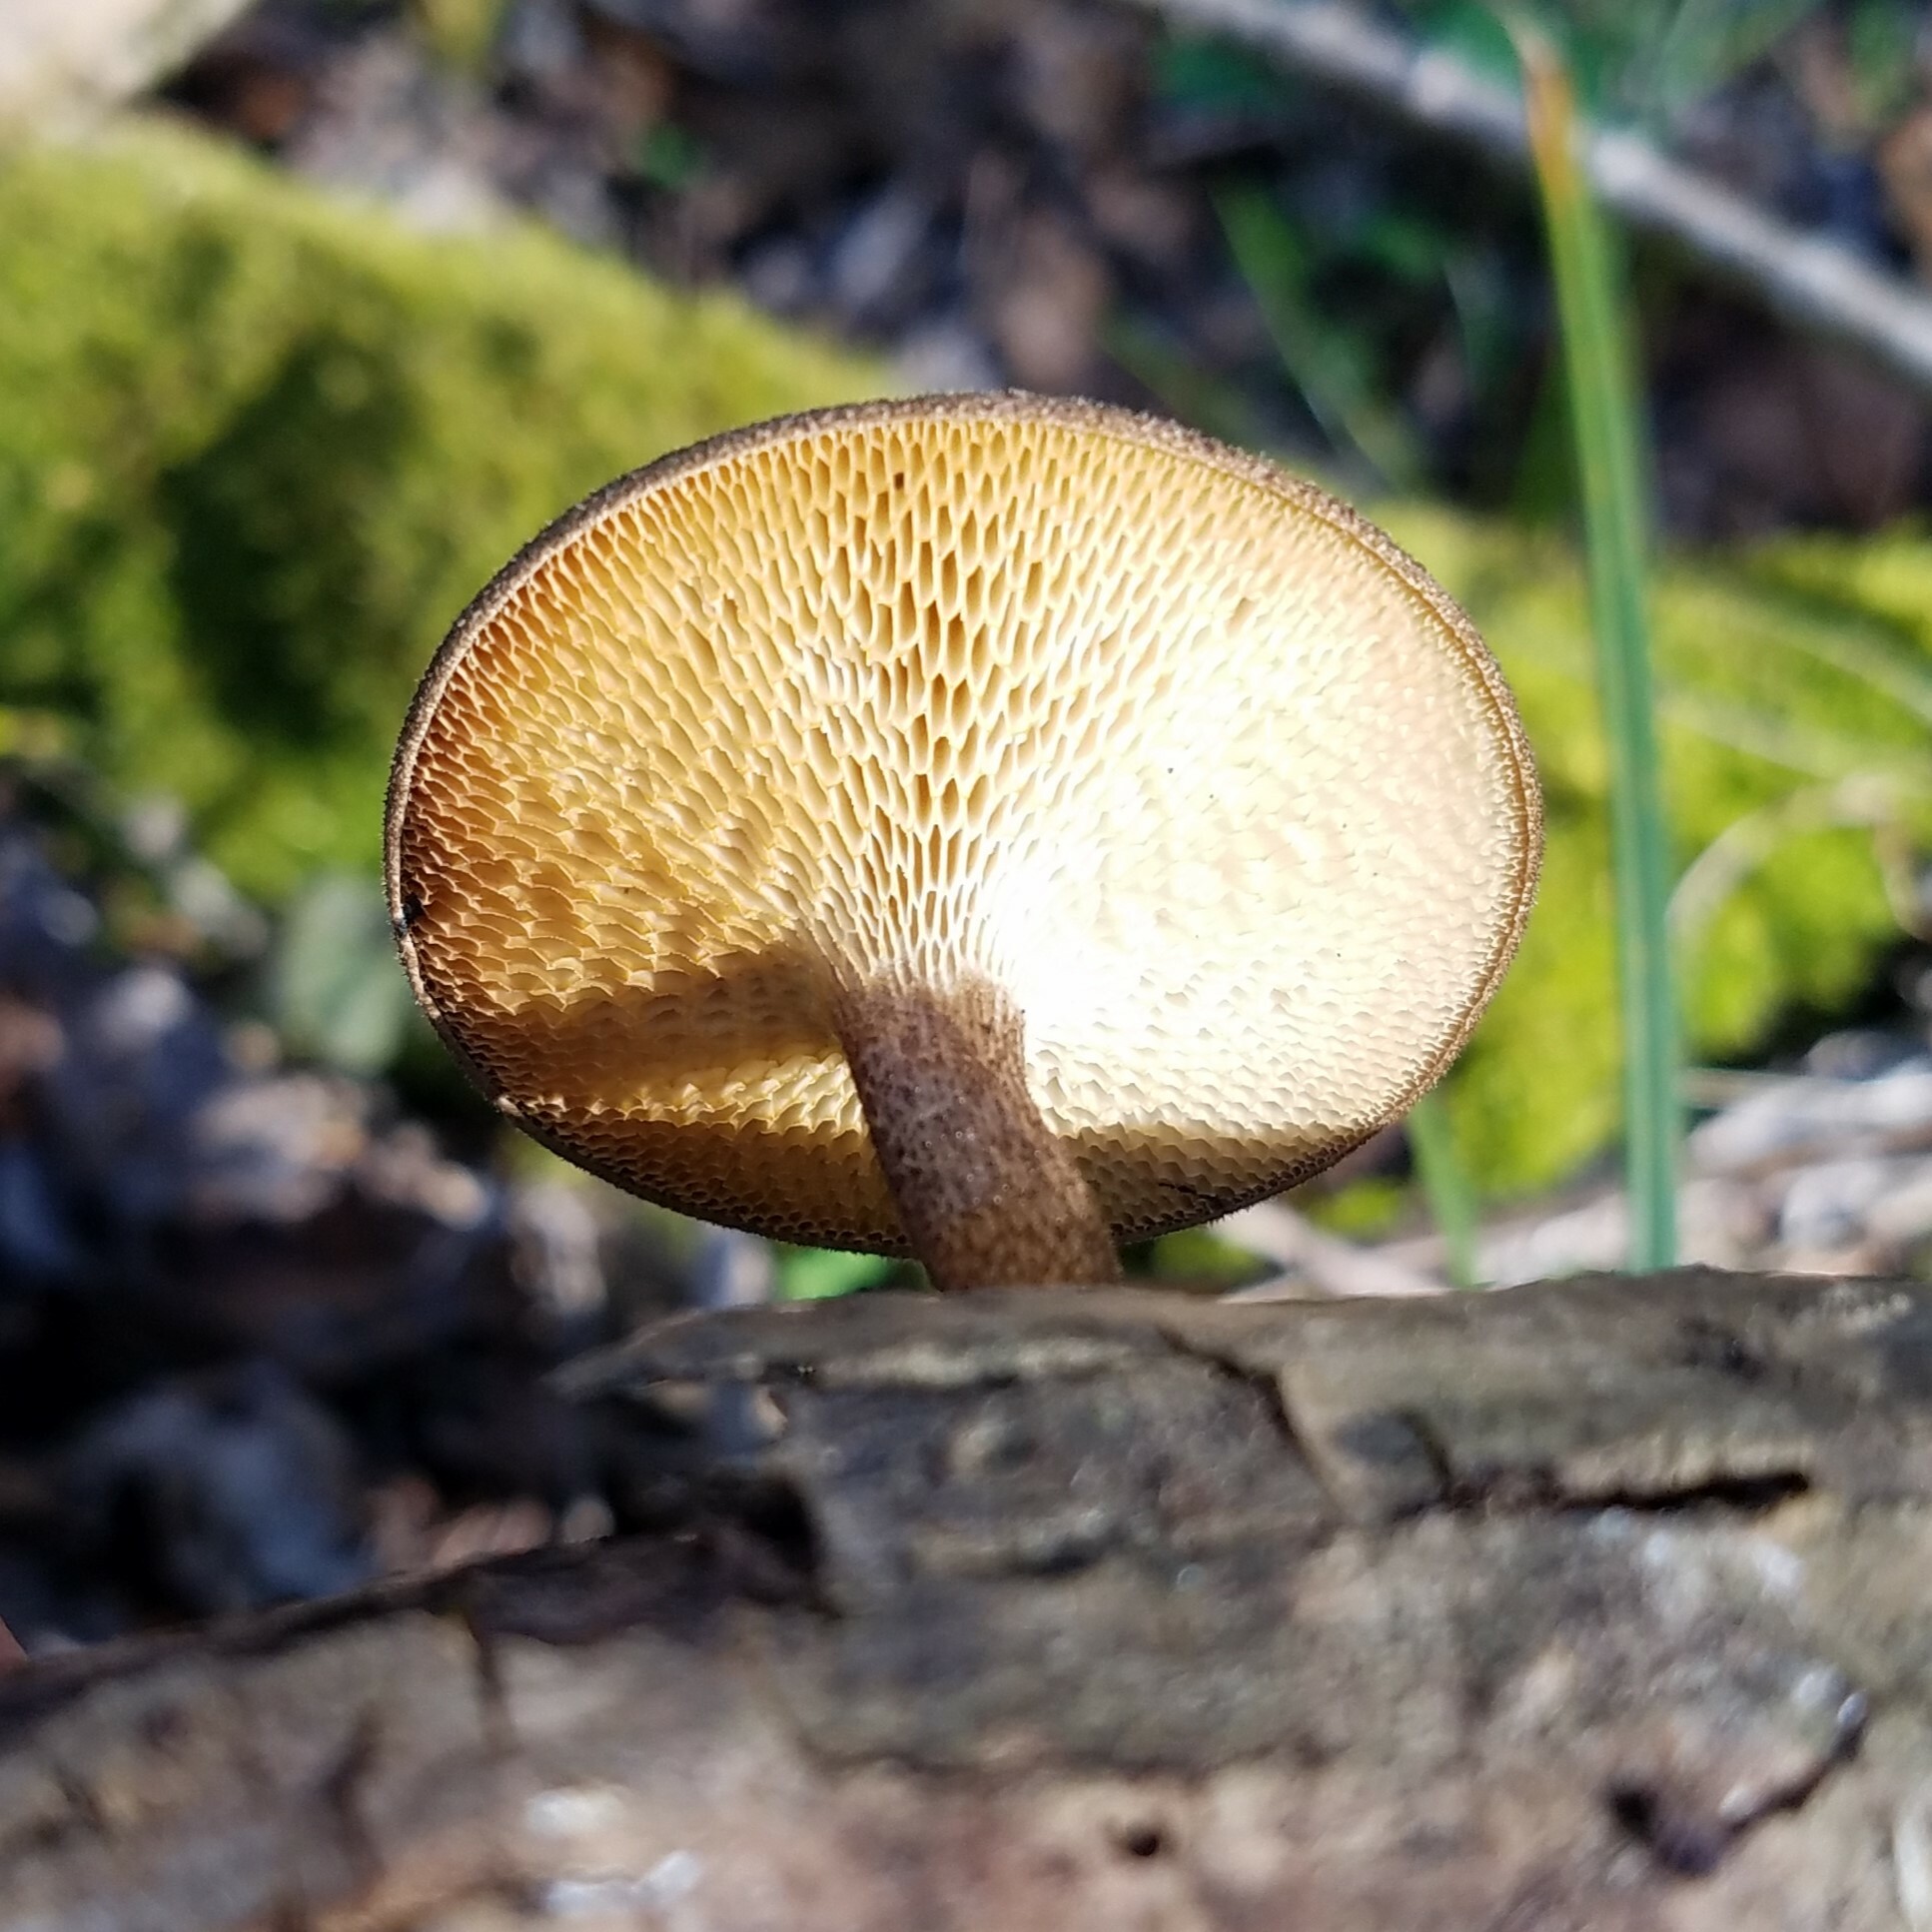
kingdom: Fungi
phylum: Basidiomycota
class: Agaricomycetes
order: Polyporales
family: Polyporaceae
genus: Lentinus
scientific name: Lentinus arcularius
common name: Spring polypore
